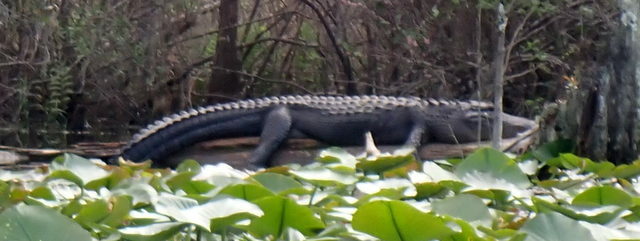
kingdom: Animalia
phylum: Chordata
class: Crocodylia
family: Alligatoridae
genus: Alligator
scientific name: Alligator mississippiensis
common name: American alligator
